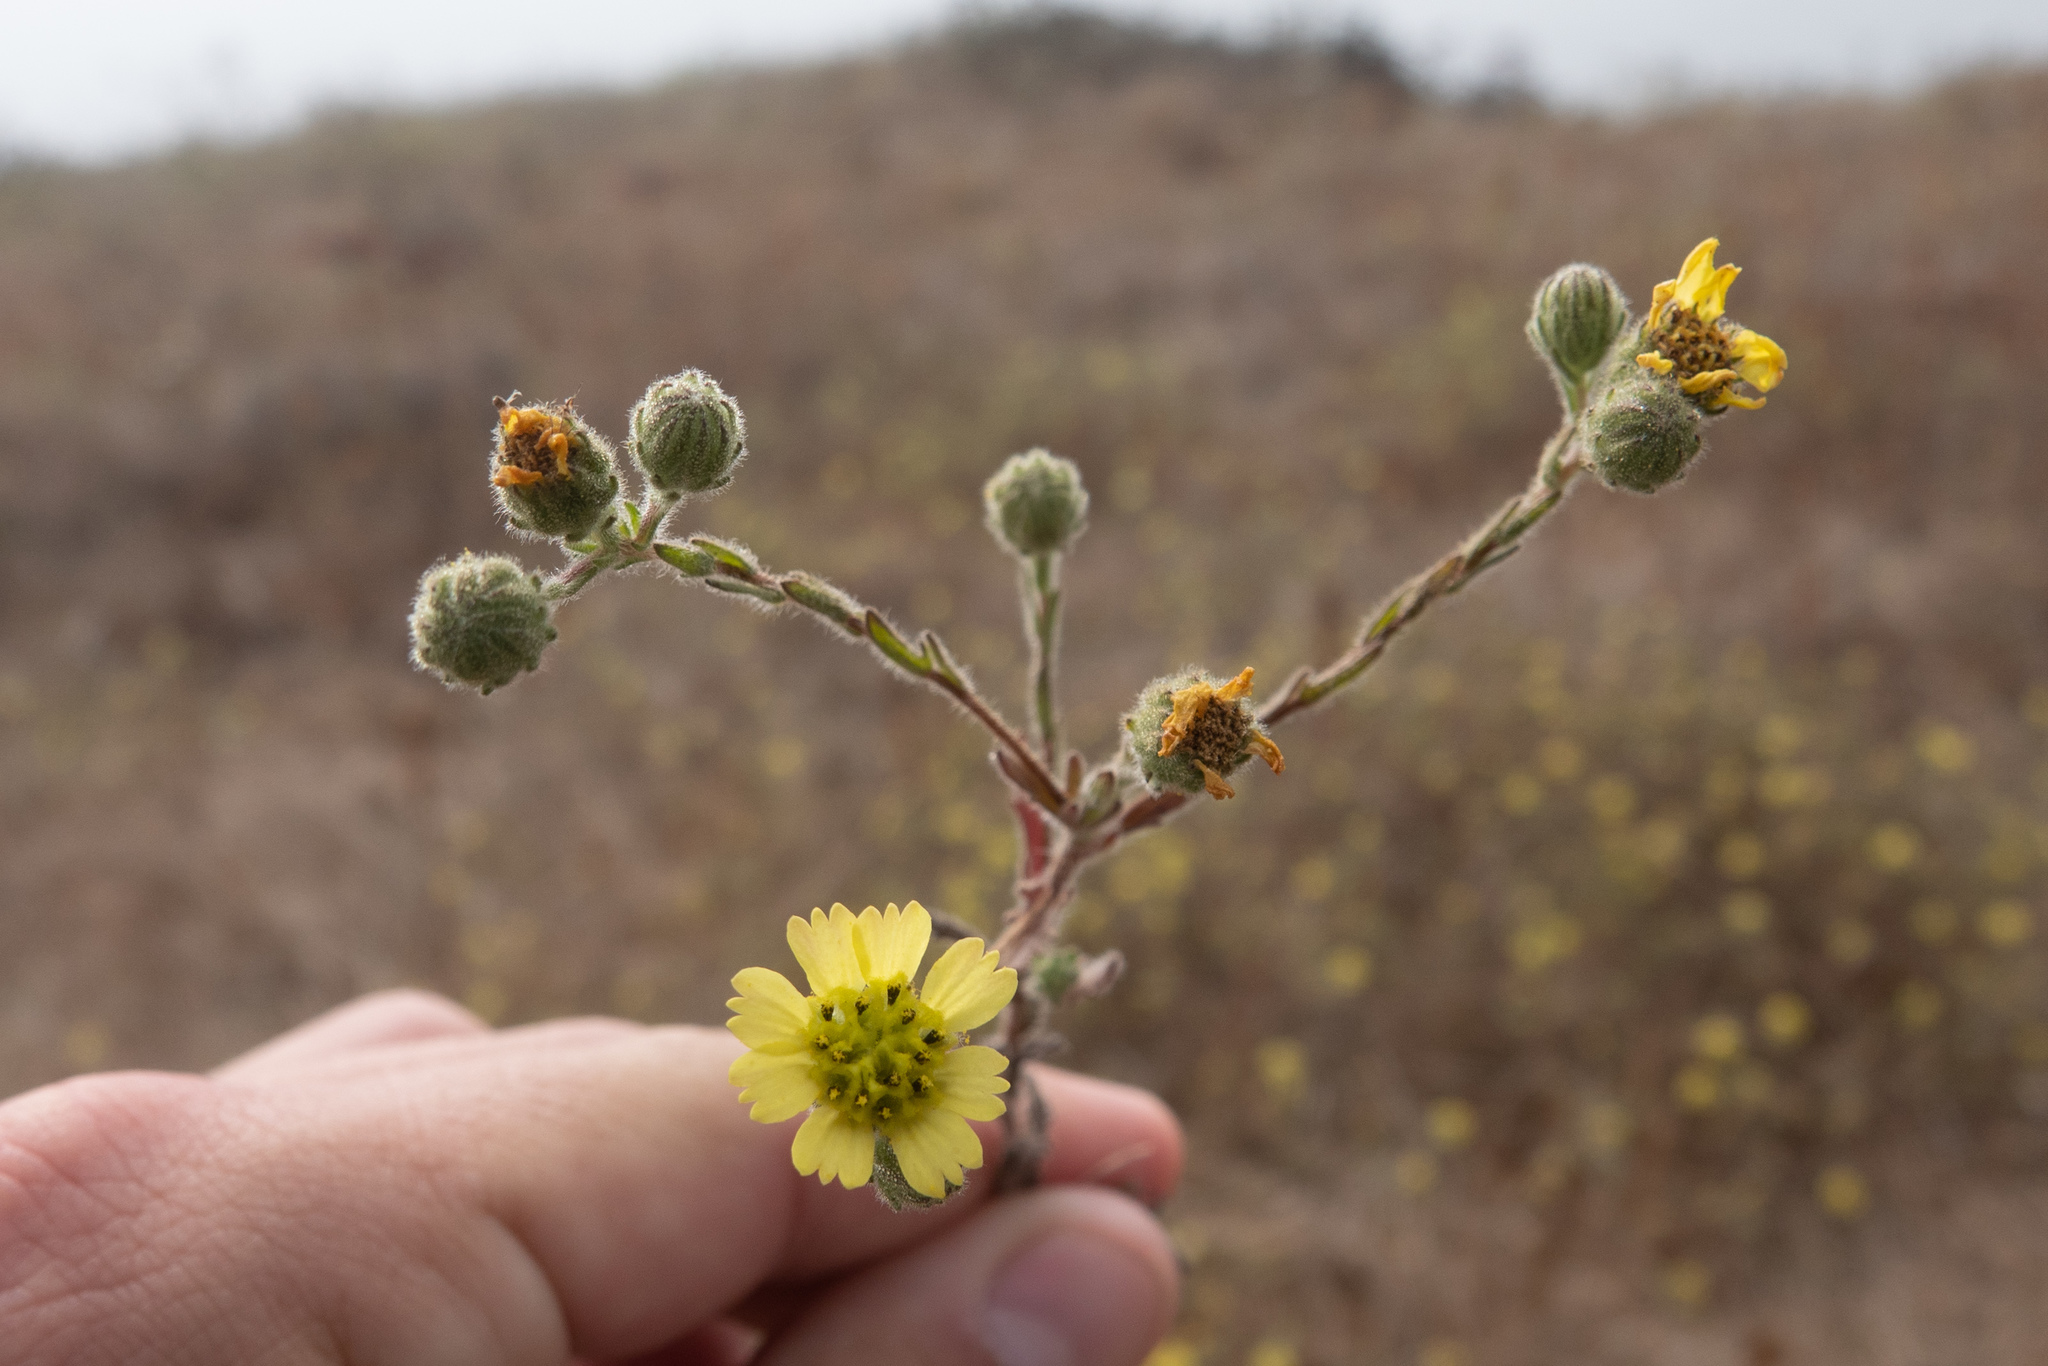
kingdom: Plantae
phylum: Tracheophyta
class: Magnoliopsida
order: Asterales
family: Asteraceae
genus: Deinandra
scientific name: Deinandra increscens
